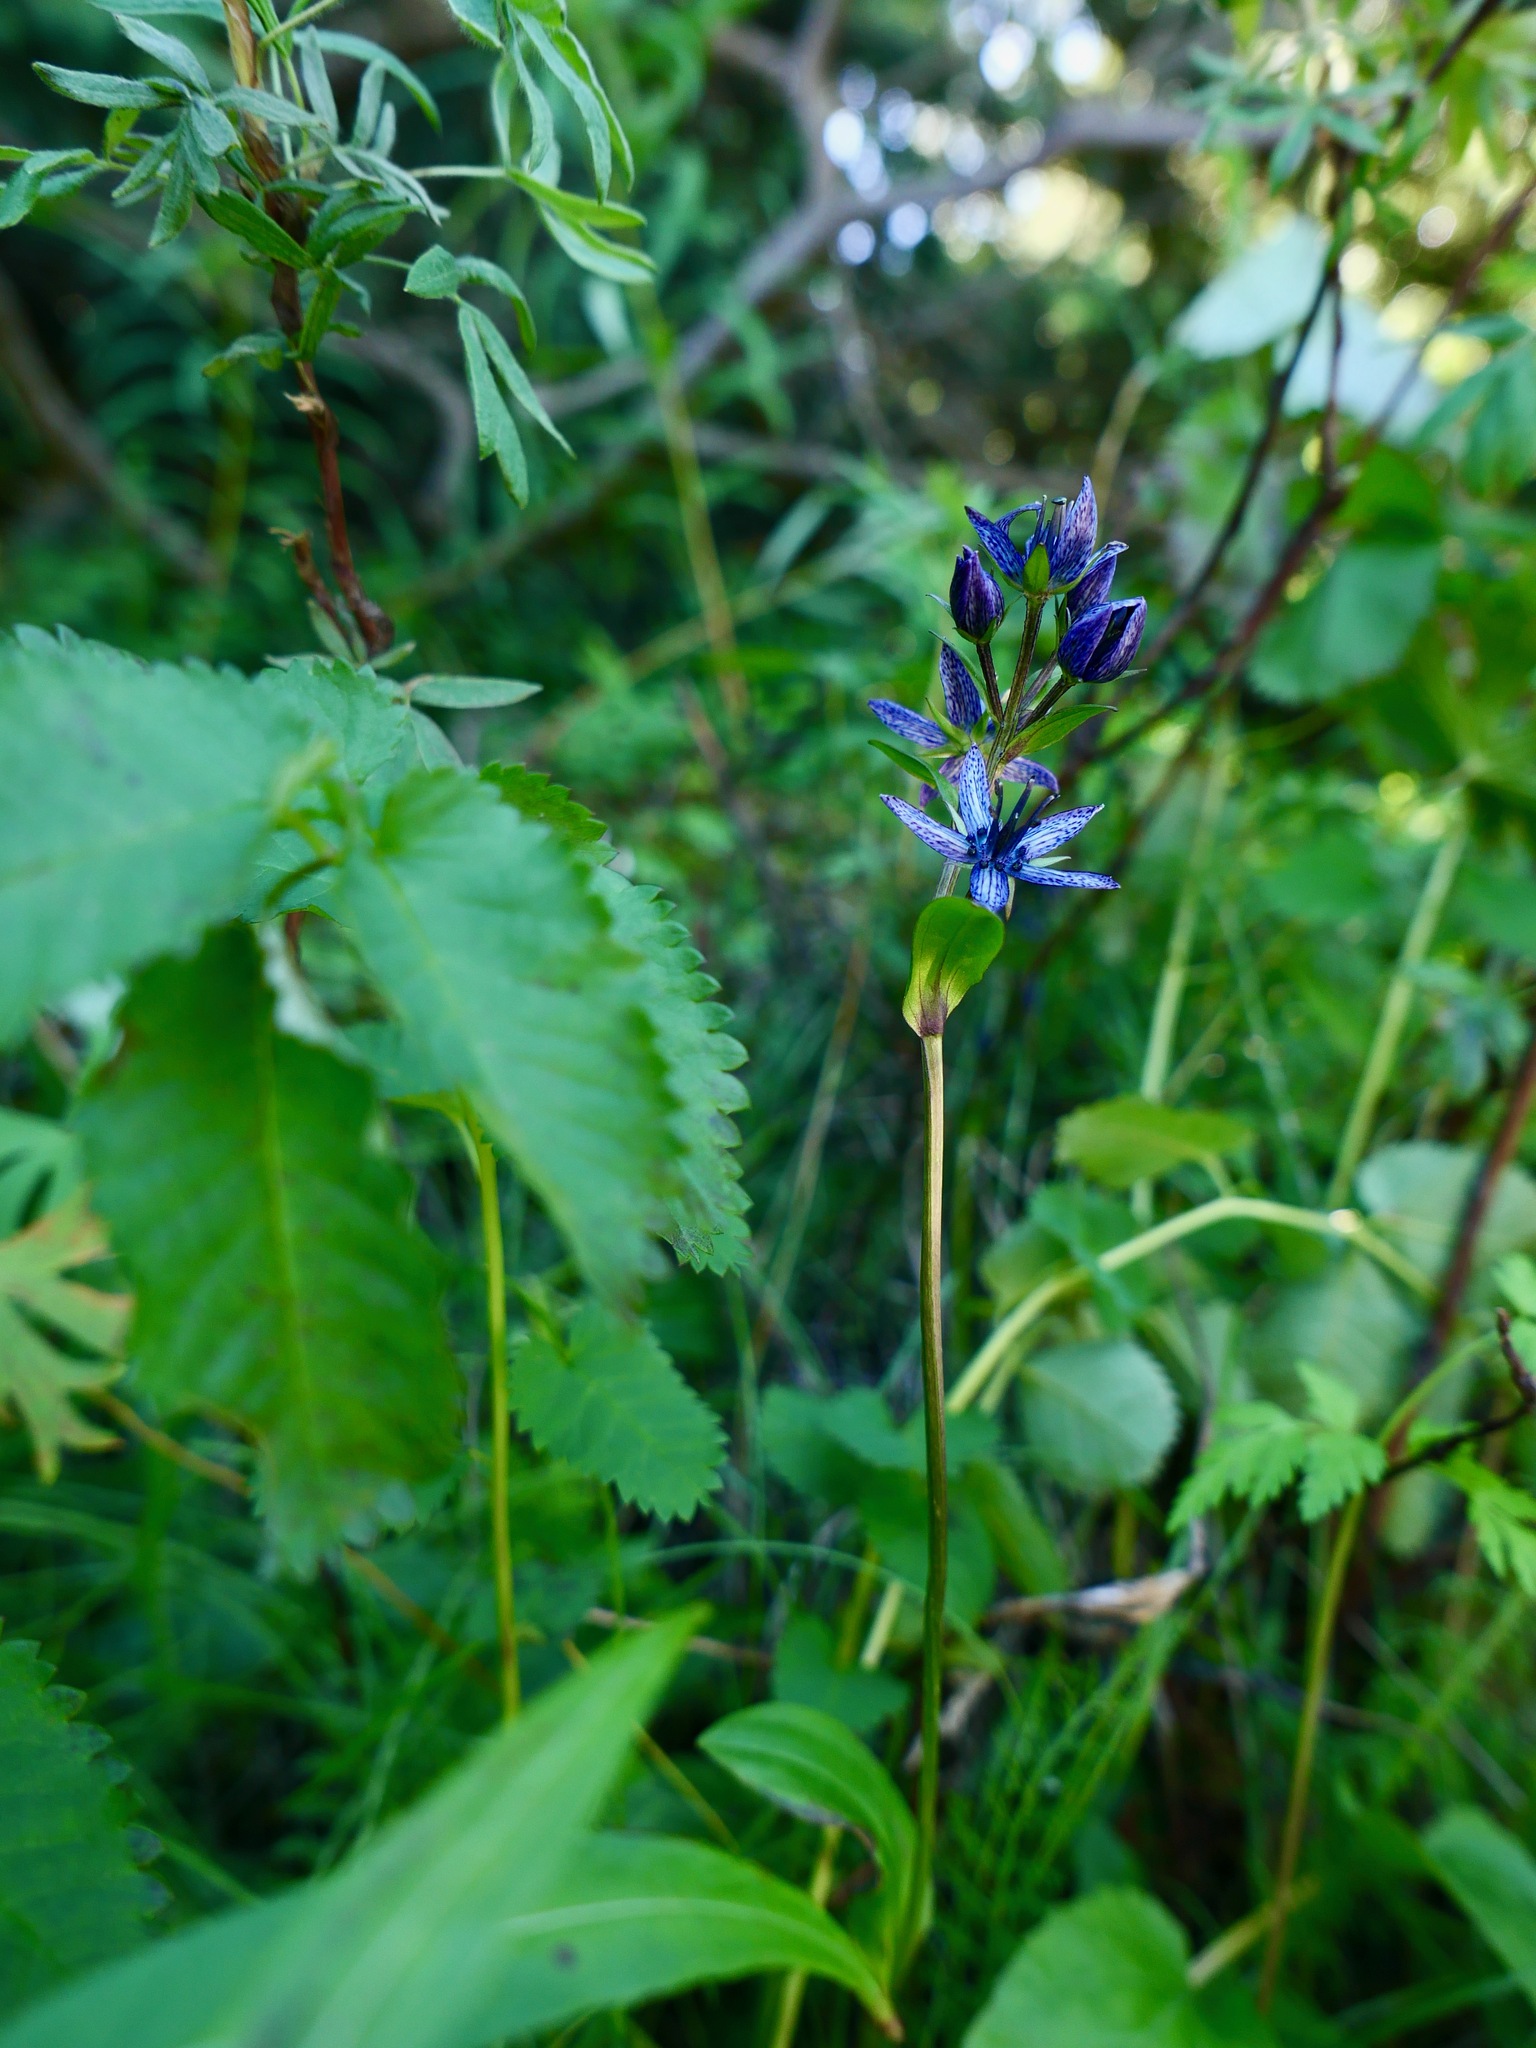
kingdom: Plantae
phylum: Tracheophyta
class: Magnoliopsida
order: Gentianales
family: Gentianaceae
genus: Swertia
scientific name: Swertia perennis
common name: Alpine bog swertia
